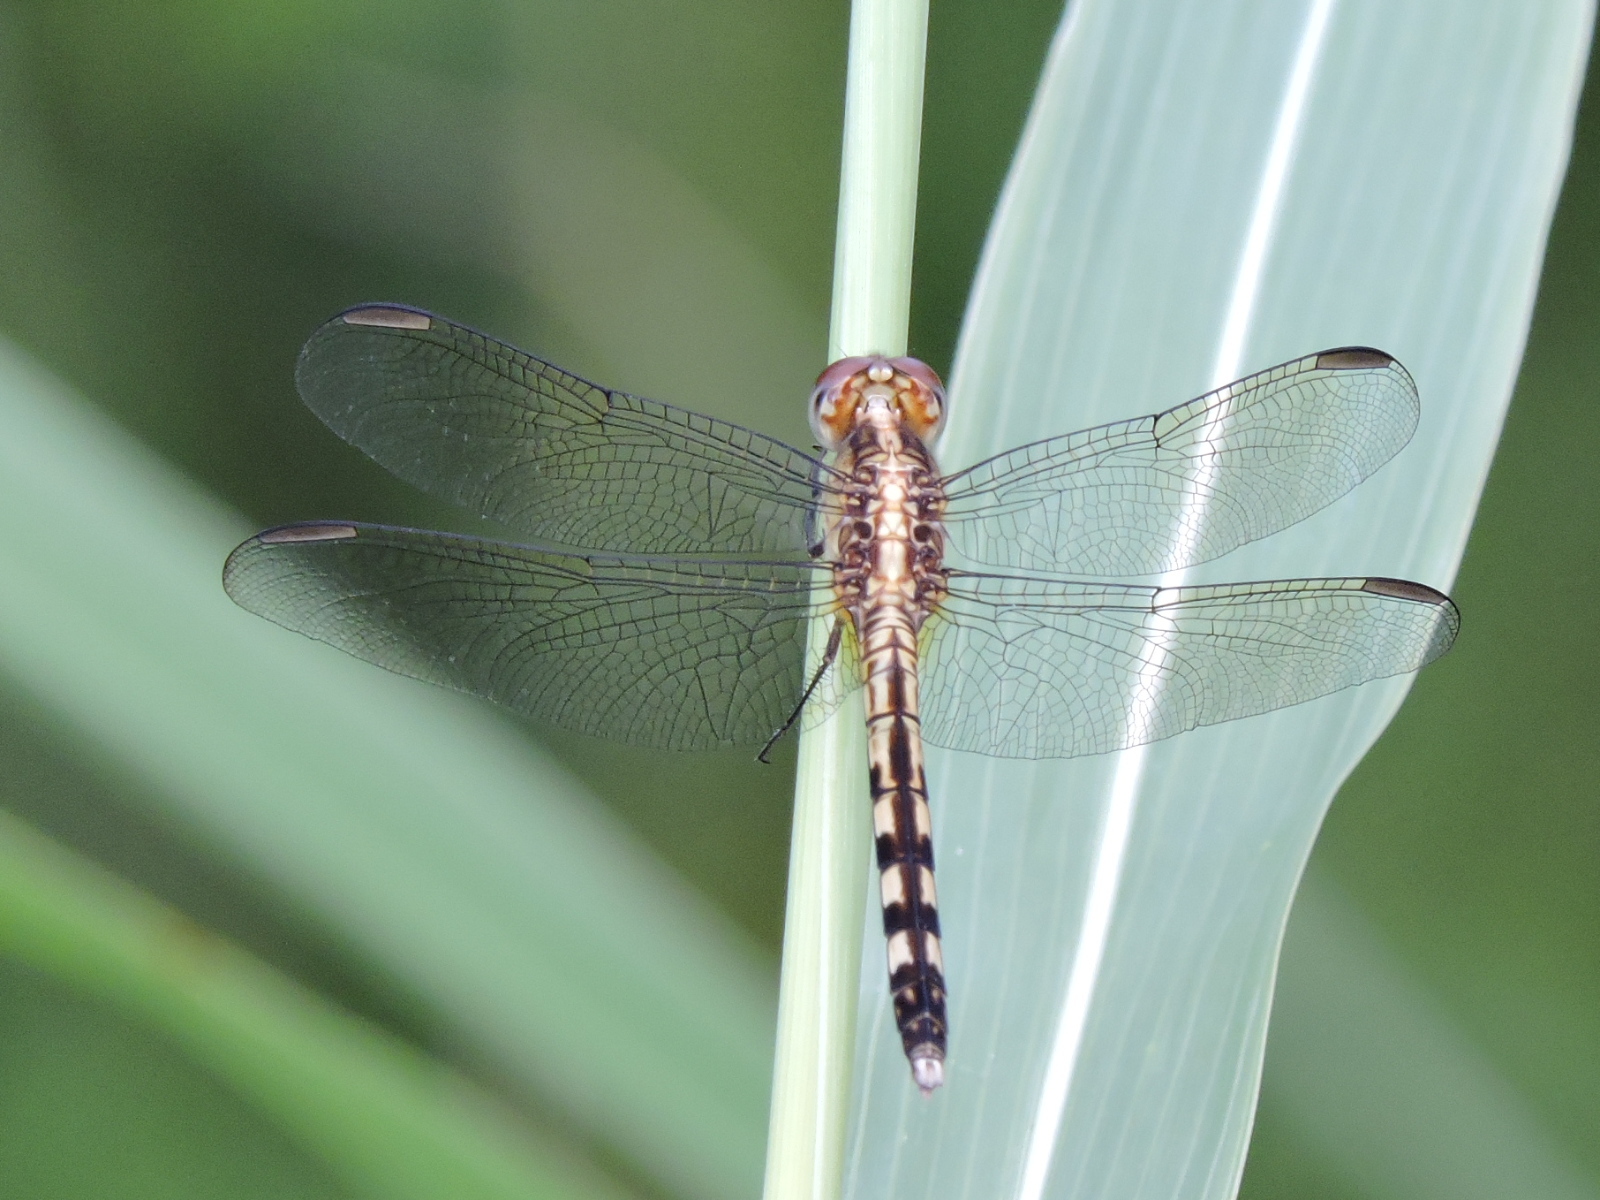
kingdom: Animalia
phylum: Arthropoda
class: Insecta
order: Odonata
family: Libellulidae
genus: Erythrodiplax
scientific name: Erythrodiplax umbrata
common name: Band-winged dragonlet
